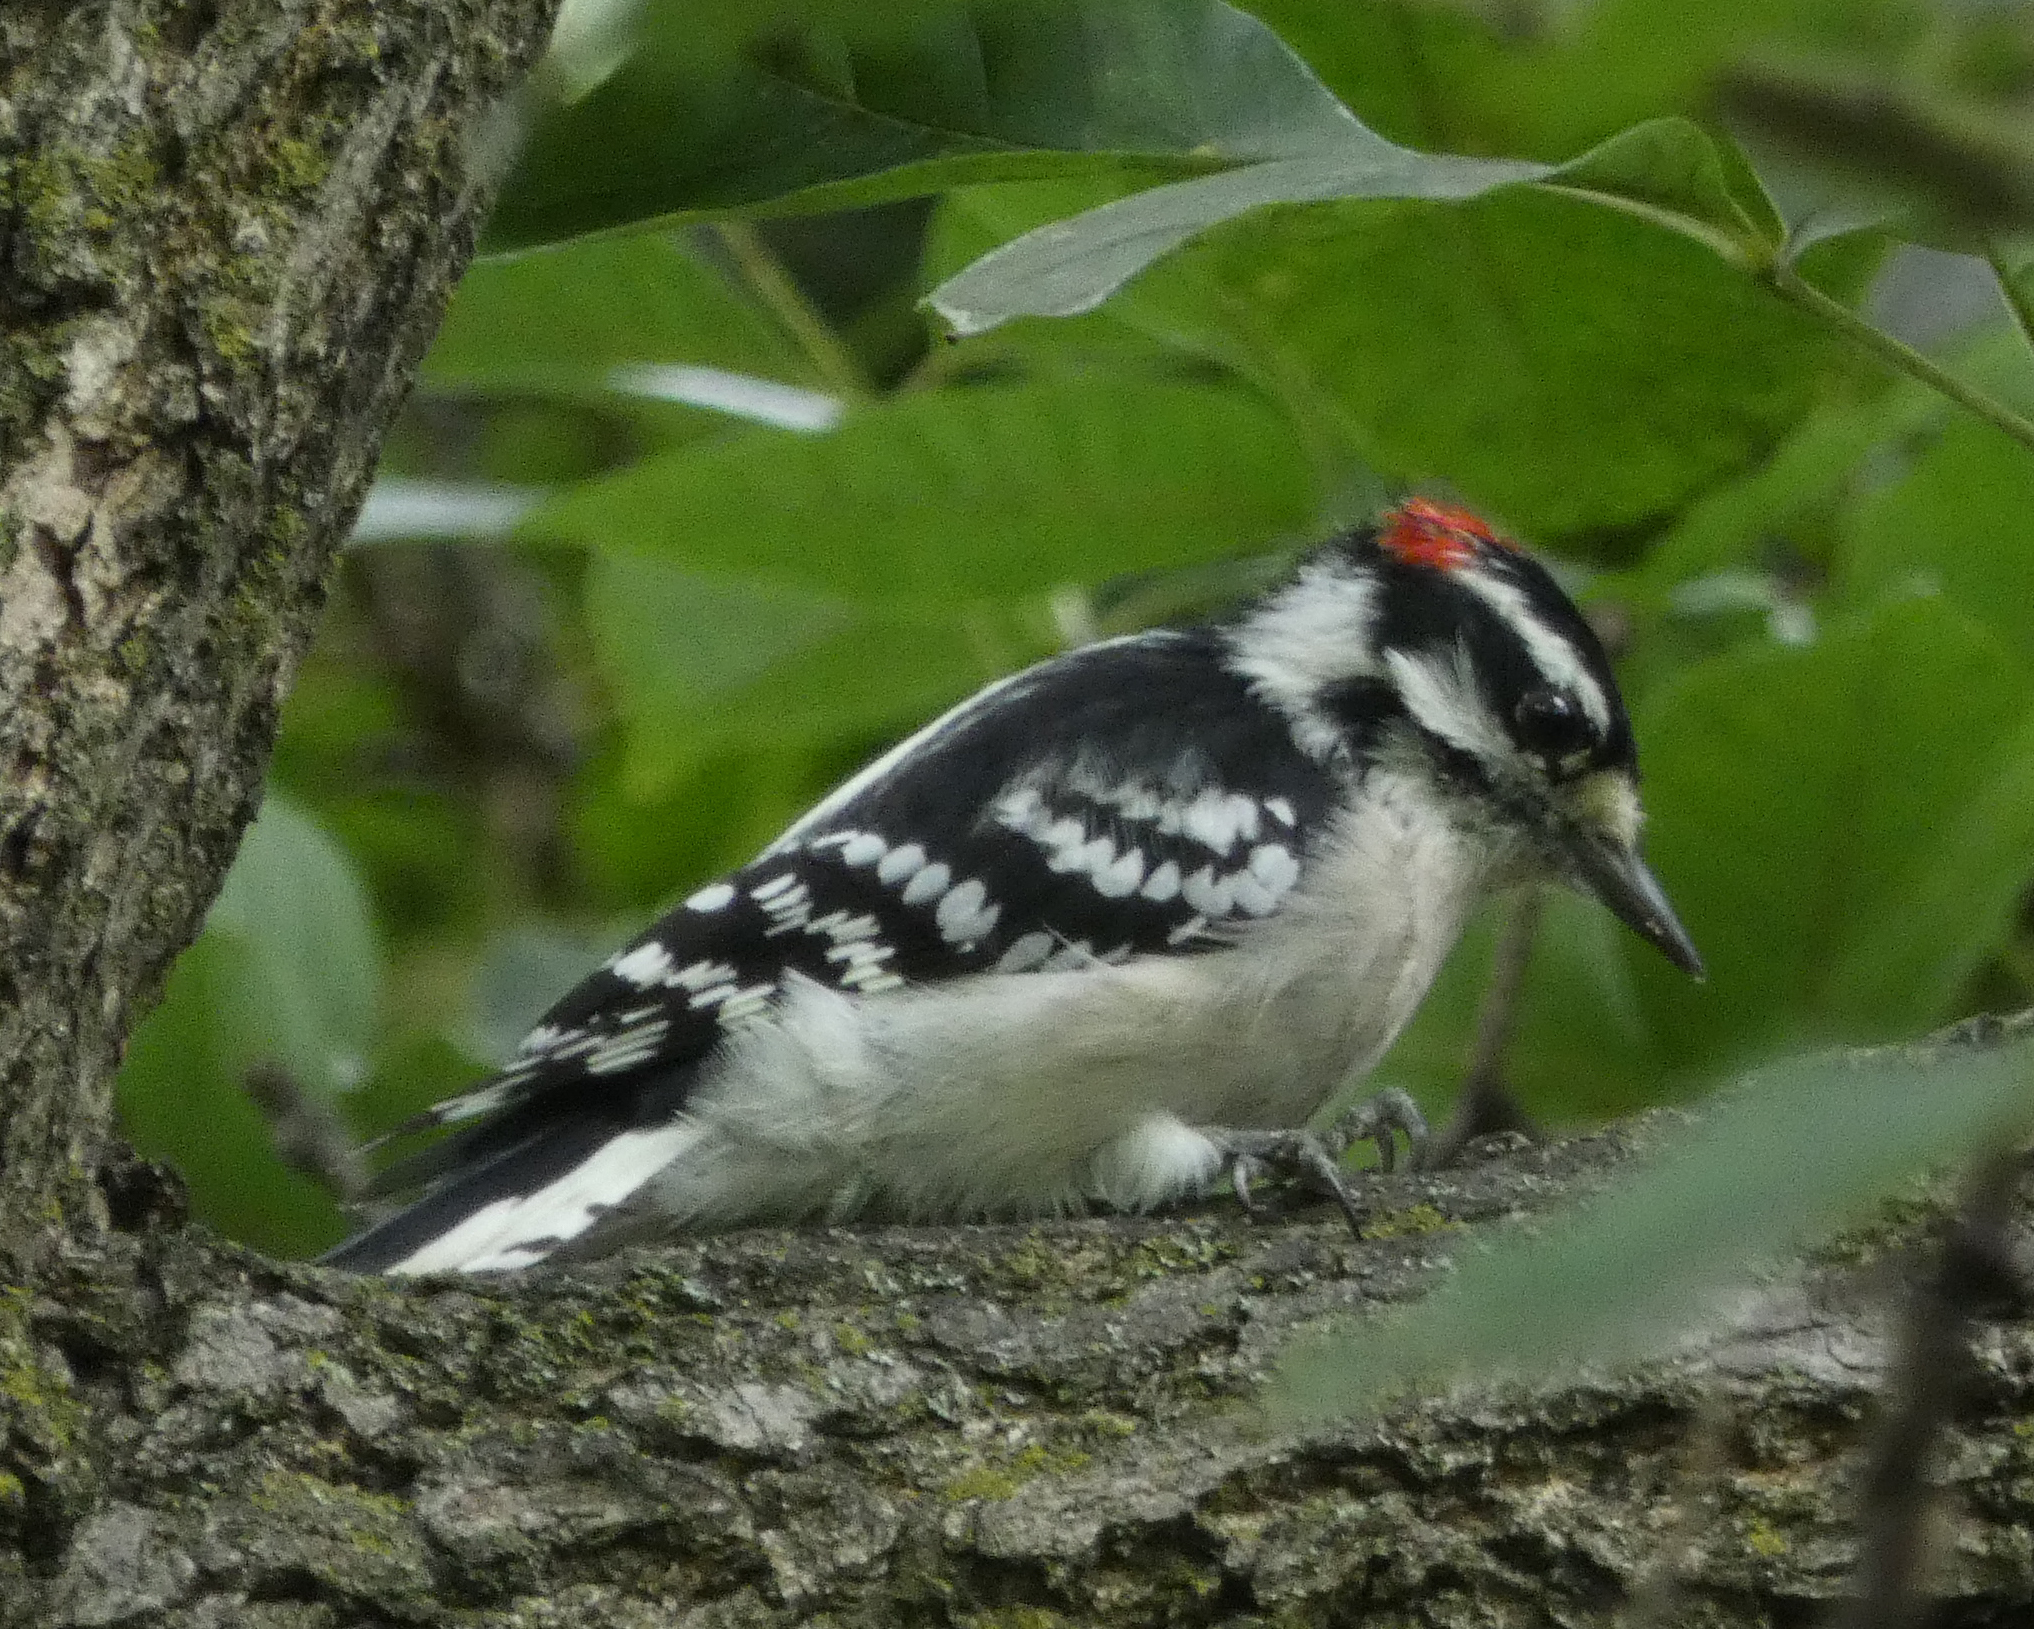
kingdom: Animalia
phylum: Chordata
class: Aves
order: Piciformes
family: Picidae
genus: Dryobates
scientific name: Dryobates pubescens
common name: Downy woodpecker
